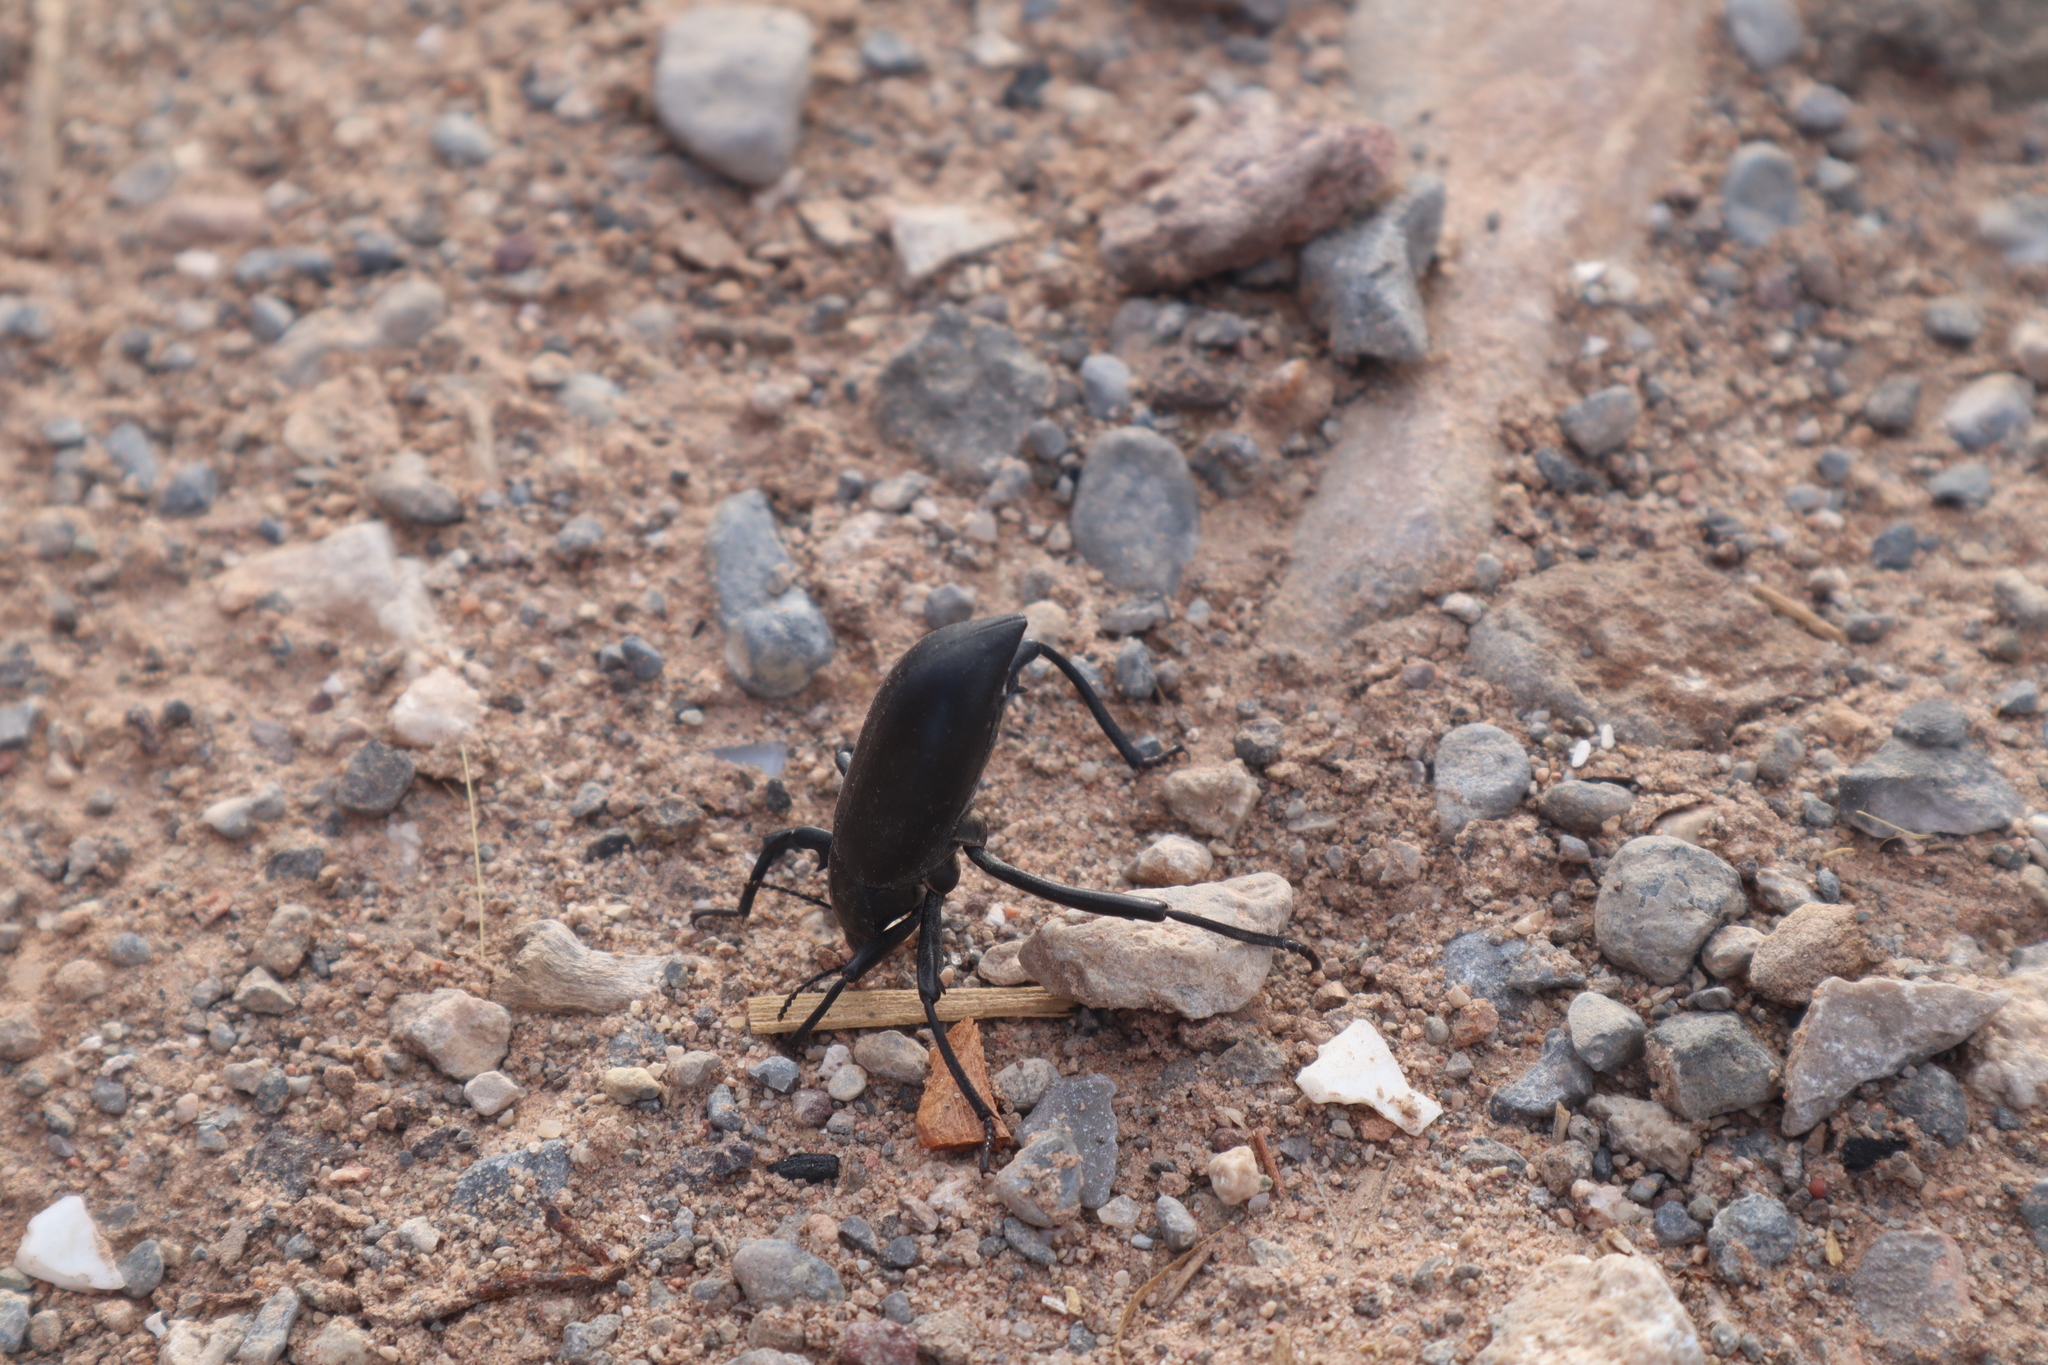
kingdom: Animalia
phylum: Arthropoda
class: Insecta
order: Coleoptera
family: Tenebrionidae
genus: Eleodes
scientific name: Eleodes armata
